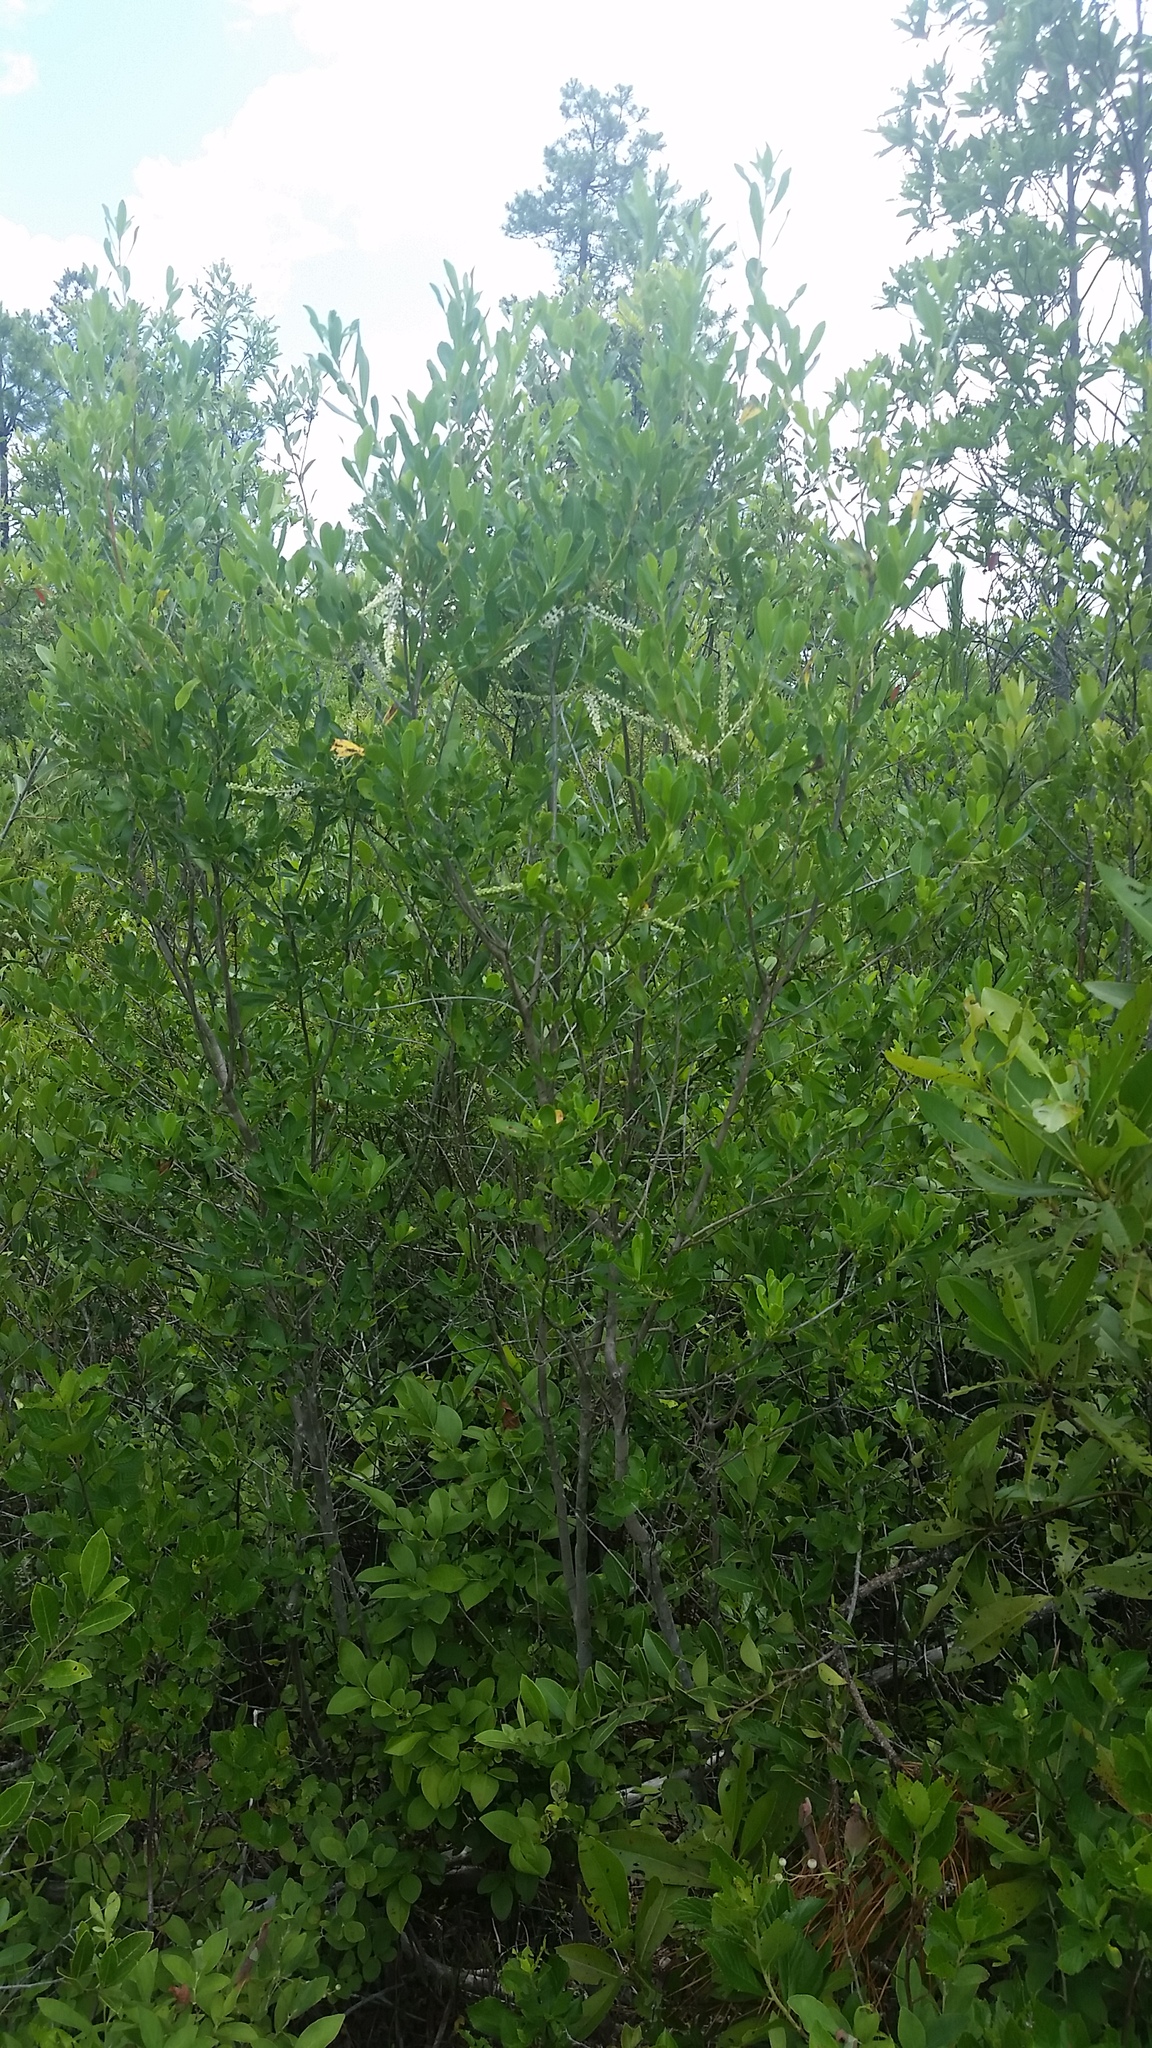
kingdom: Plantae
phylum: Tracheophyta
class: Magnoliopsida
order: Ericales
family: Cyrillaceae
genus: Cyrilla
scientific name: Cyrilla racemiflora
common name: Black titi
